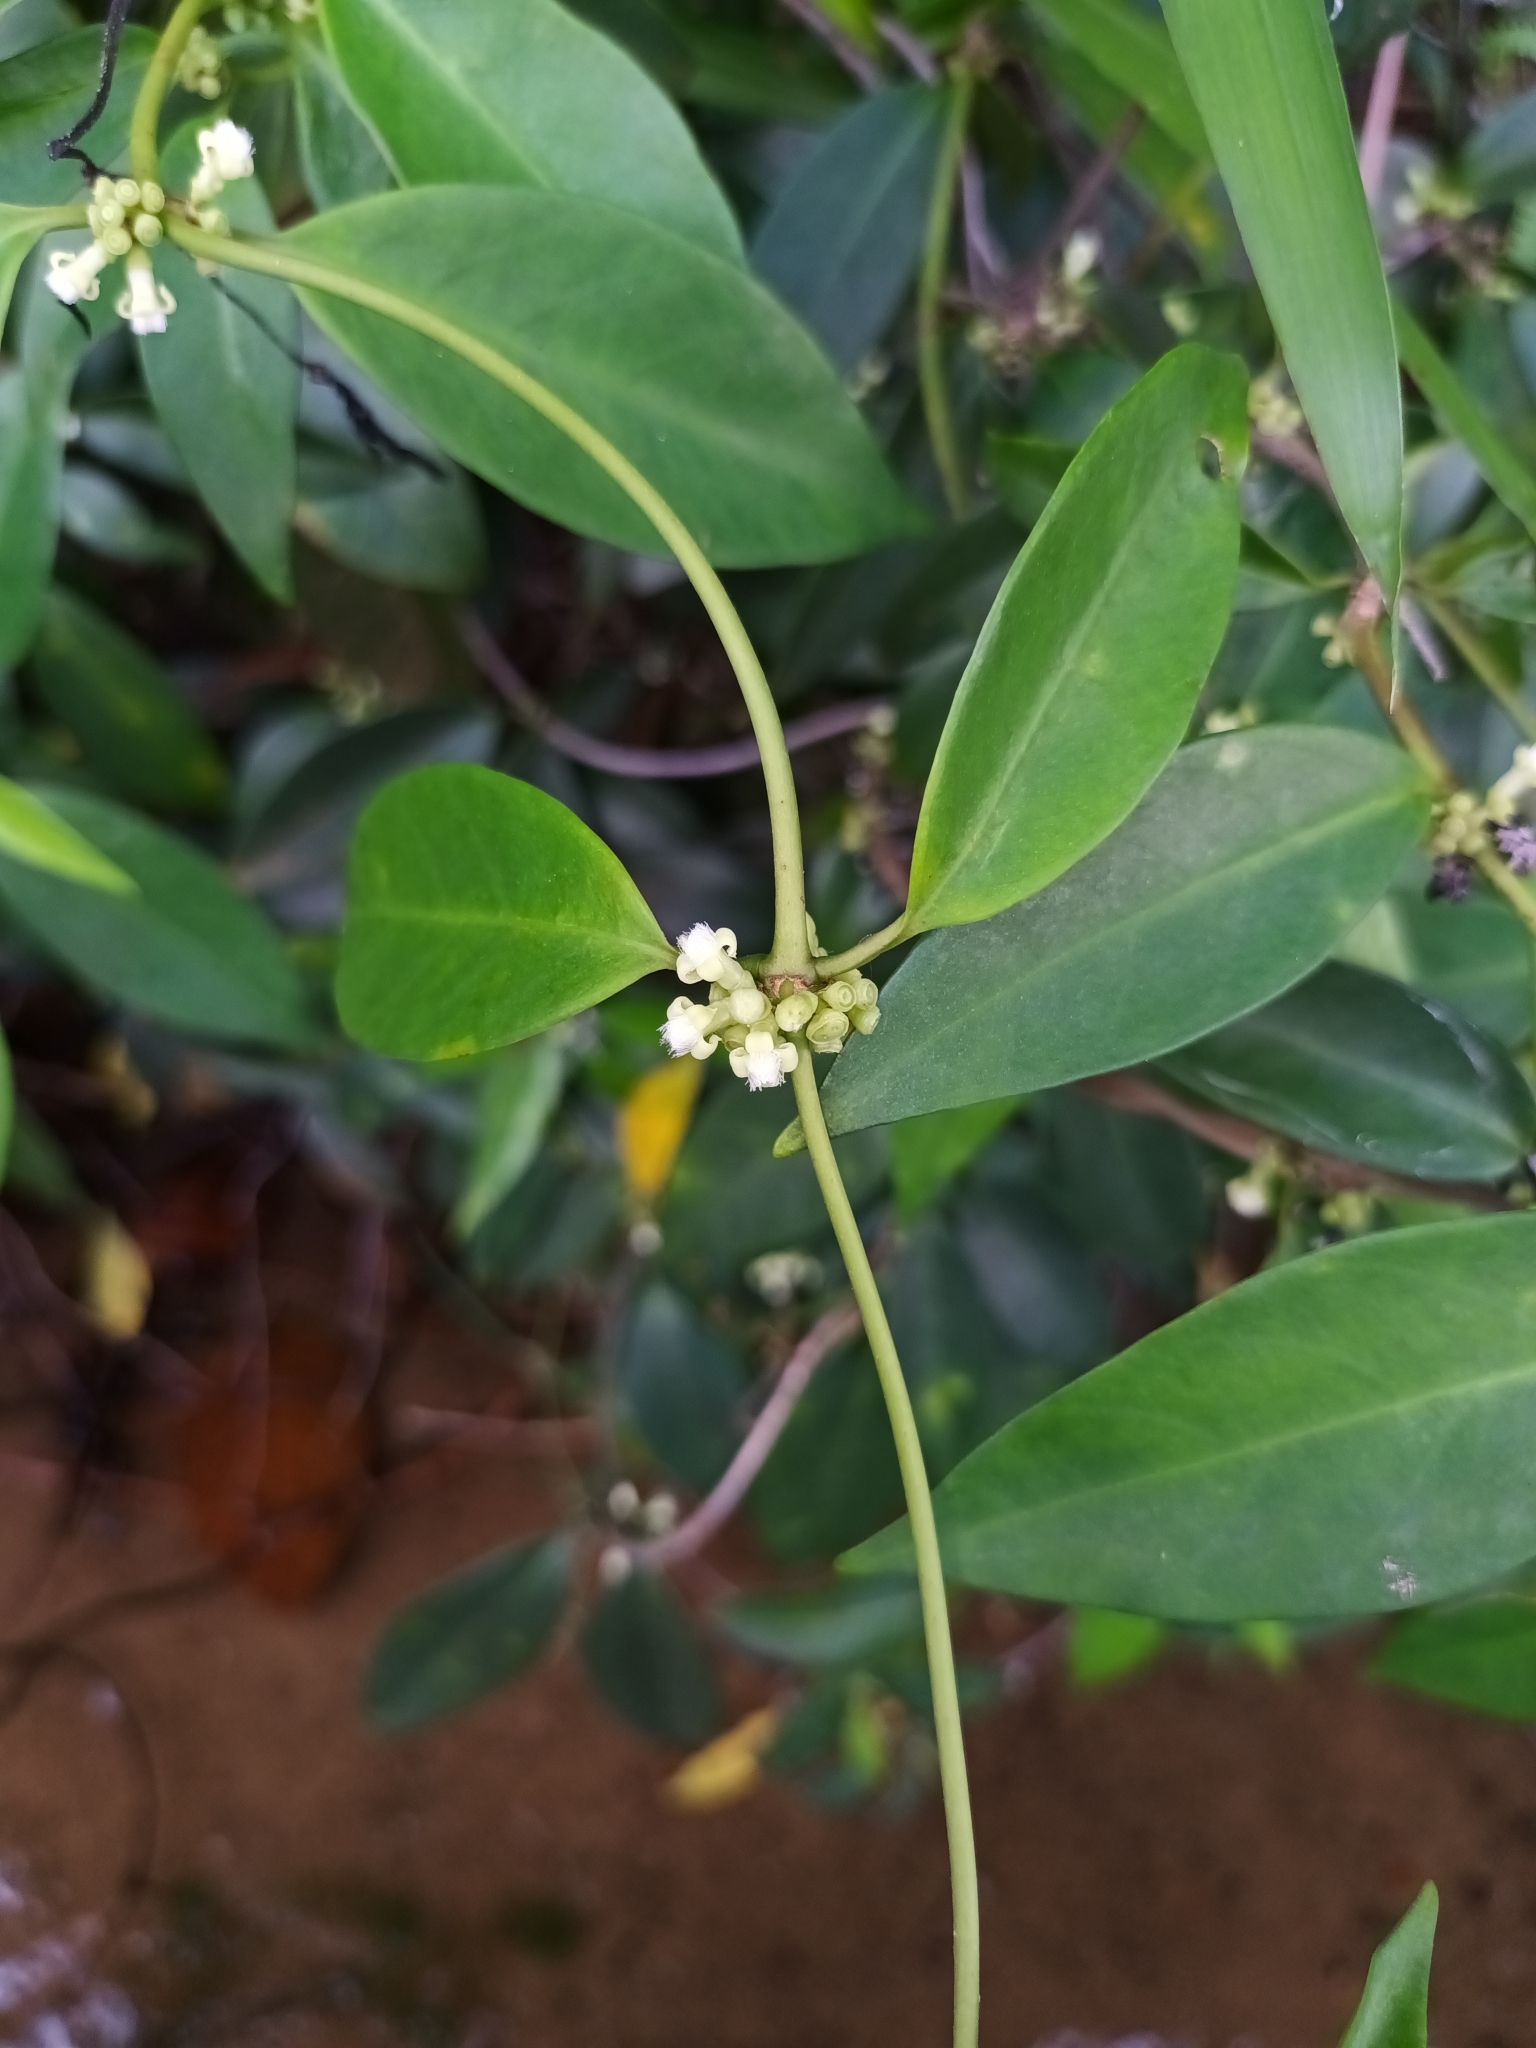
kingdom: Plantae
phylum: Tracheophyta
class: Magnoliopsida
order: Gentianales
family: Rubiaceae
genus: Gynochthodes
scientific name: Gynochthodes coriacea
